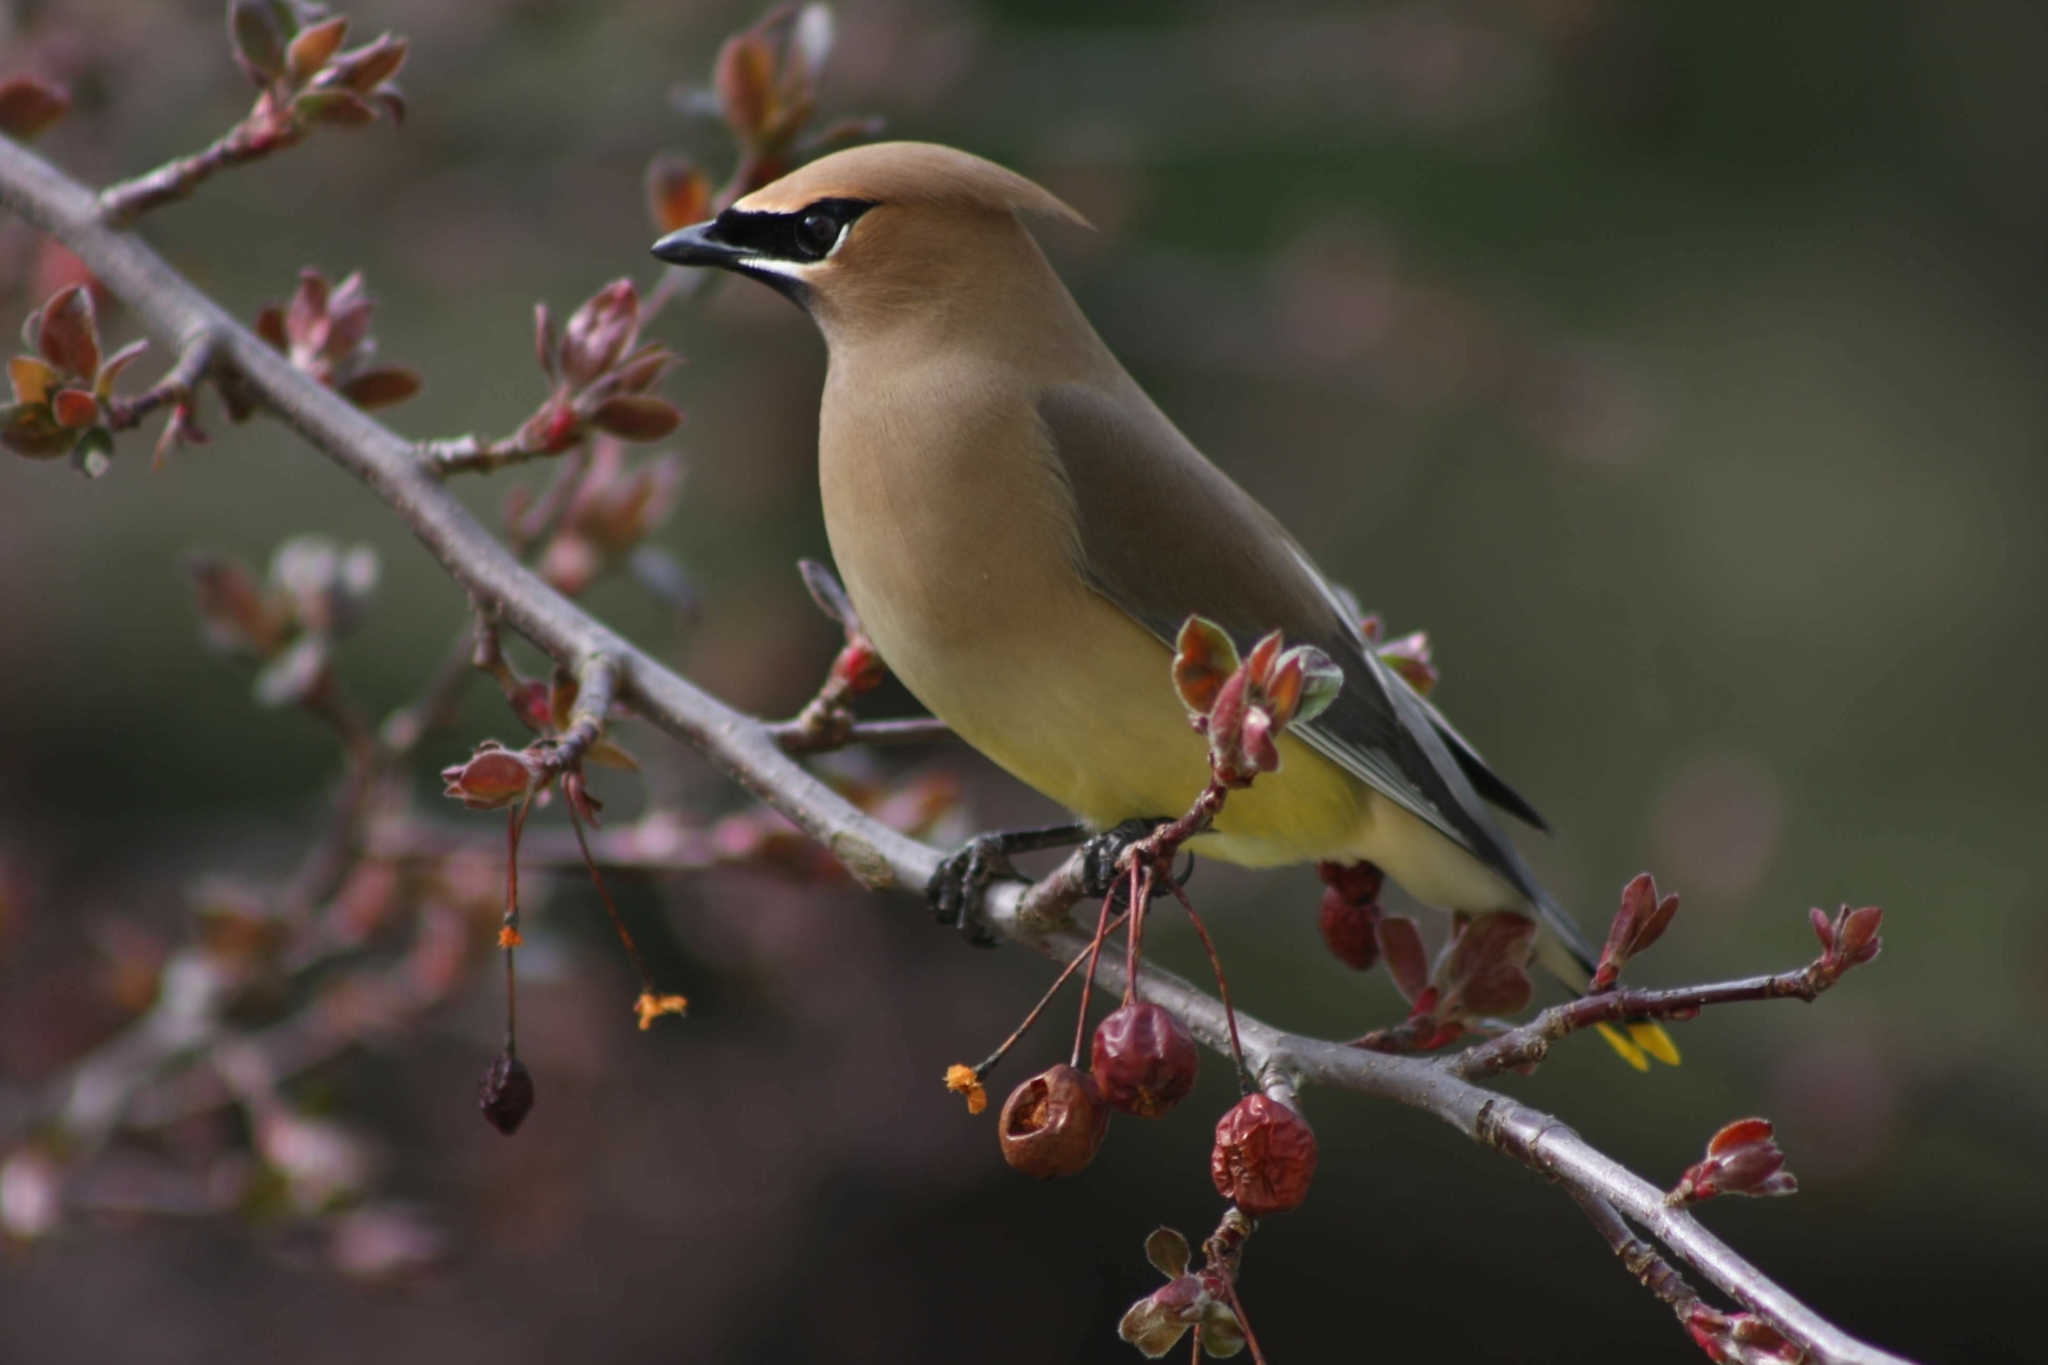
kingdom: Animalia
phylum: Chordata
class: Aves
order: Passeriformes
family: Bombycillidae
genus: Bombycilla
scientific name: Bombycilla cedrorum
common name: Cedar waxwing
